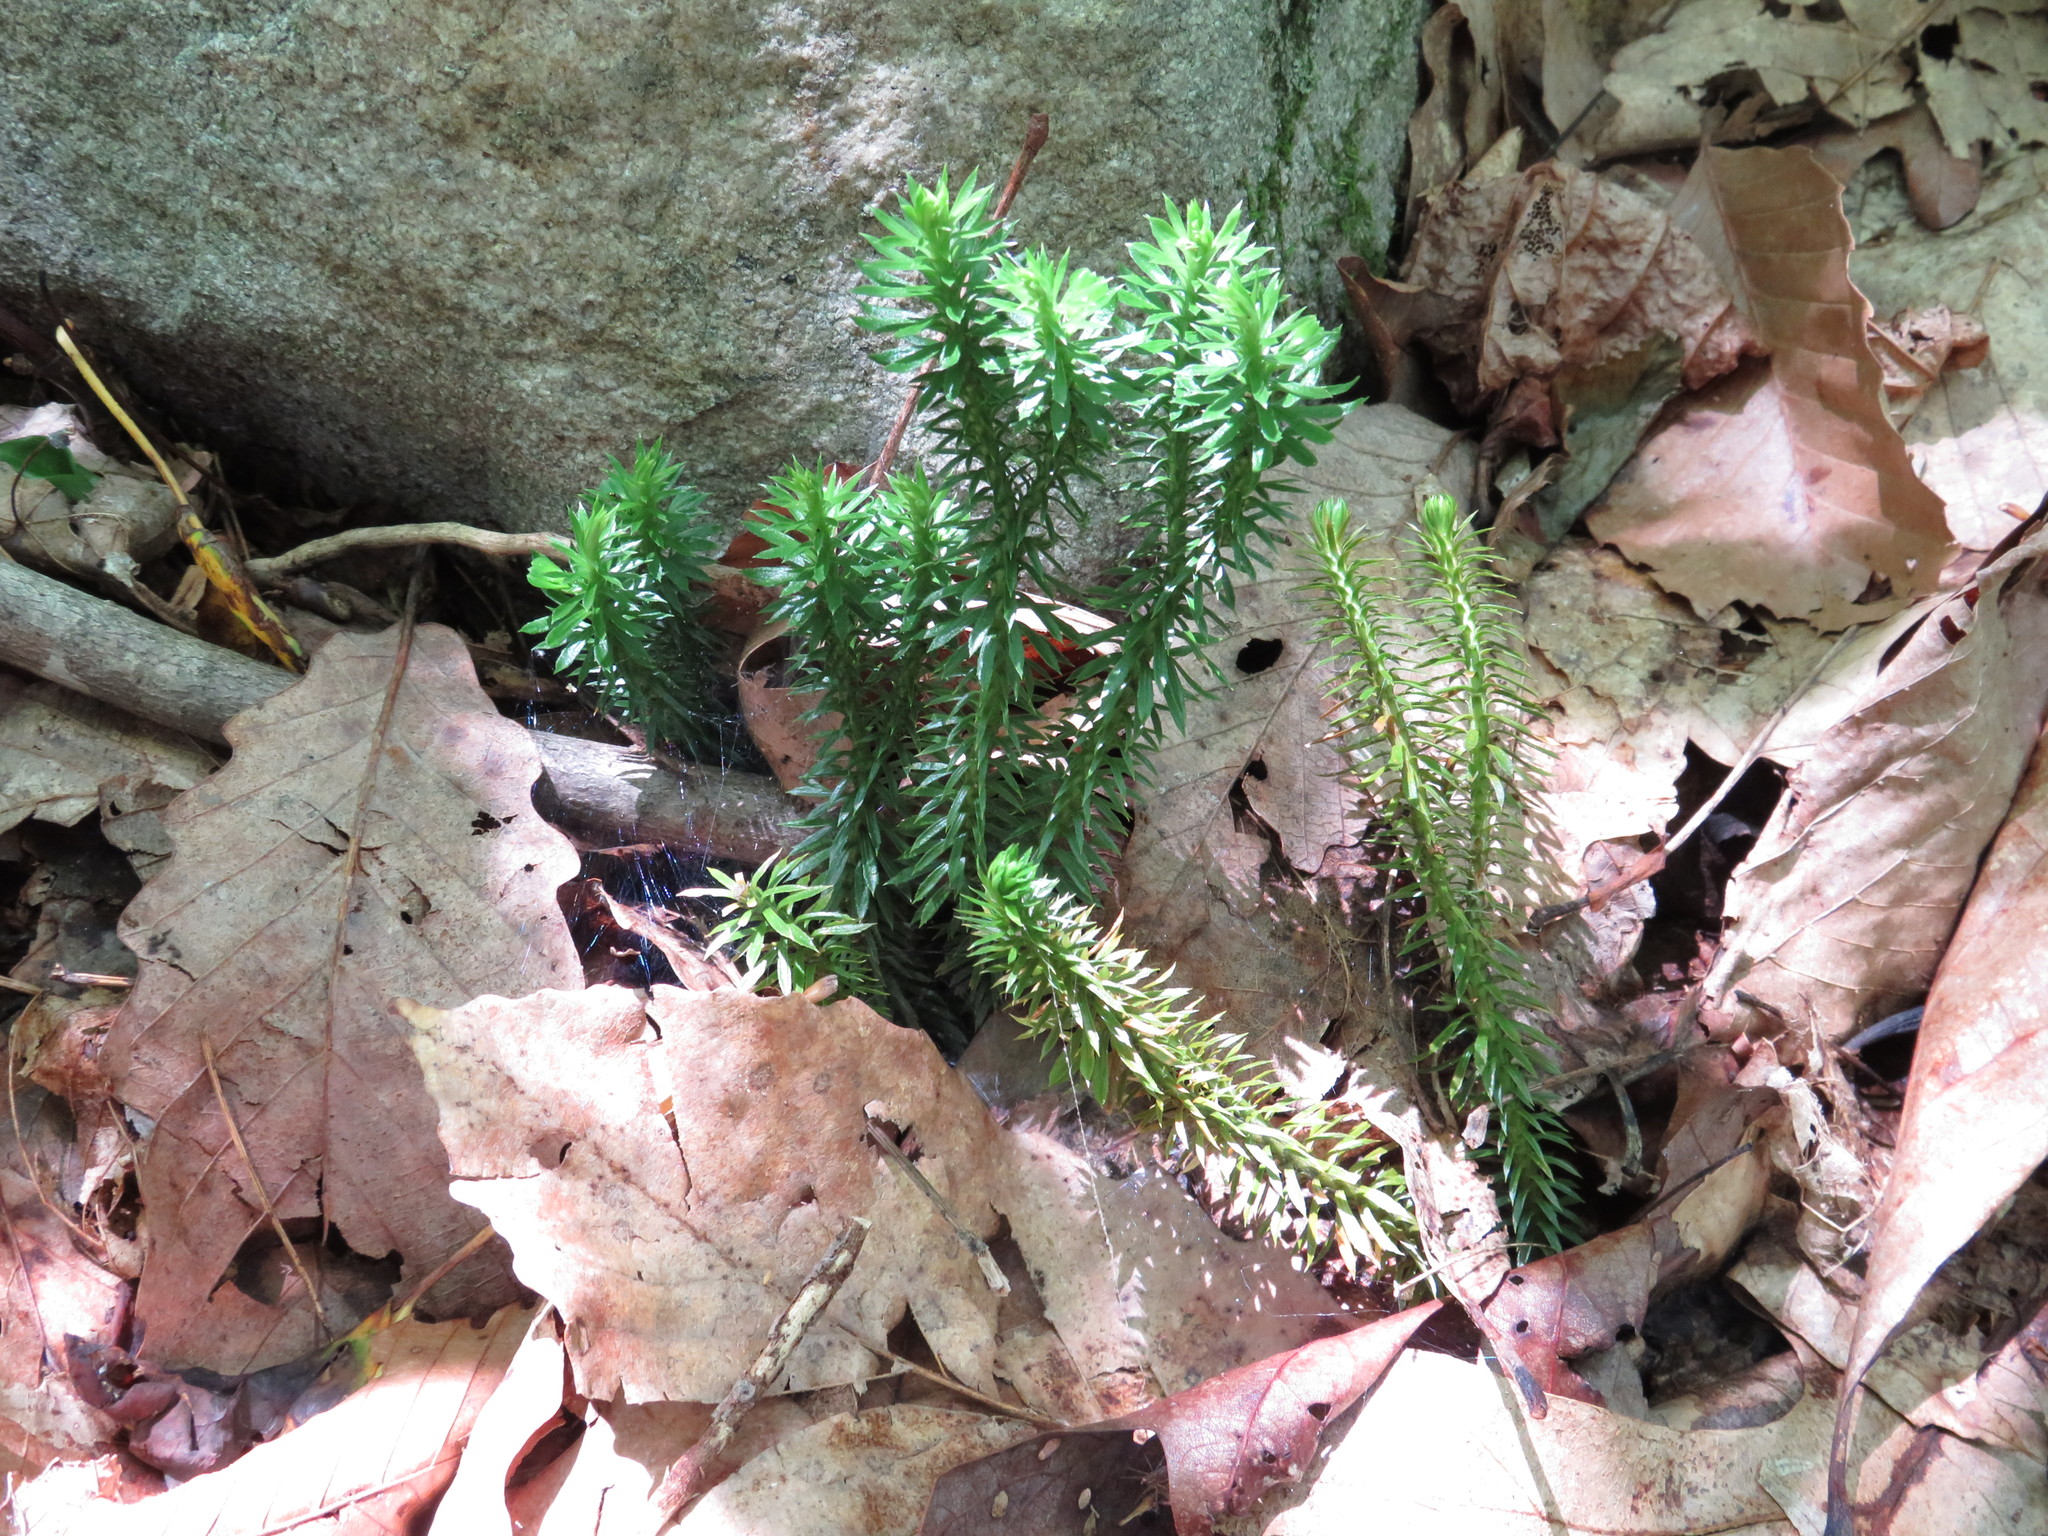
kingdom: Plantae
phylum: Tracheophyta
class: Lycopodiopsida
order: Lycopodiales
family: Lycopodiaceae
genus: Huperzia
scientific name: Huperzia lucidula
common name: Shining clubmoss
